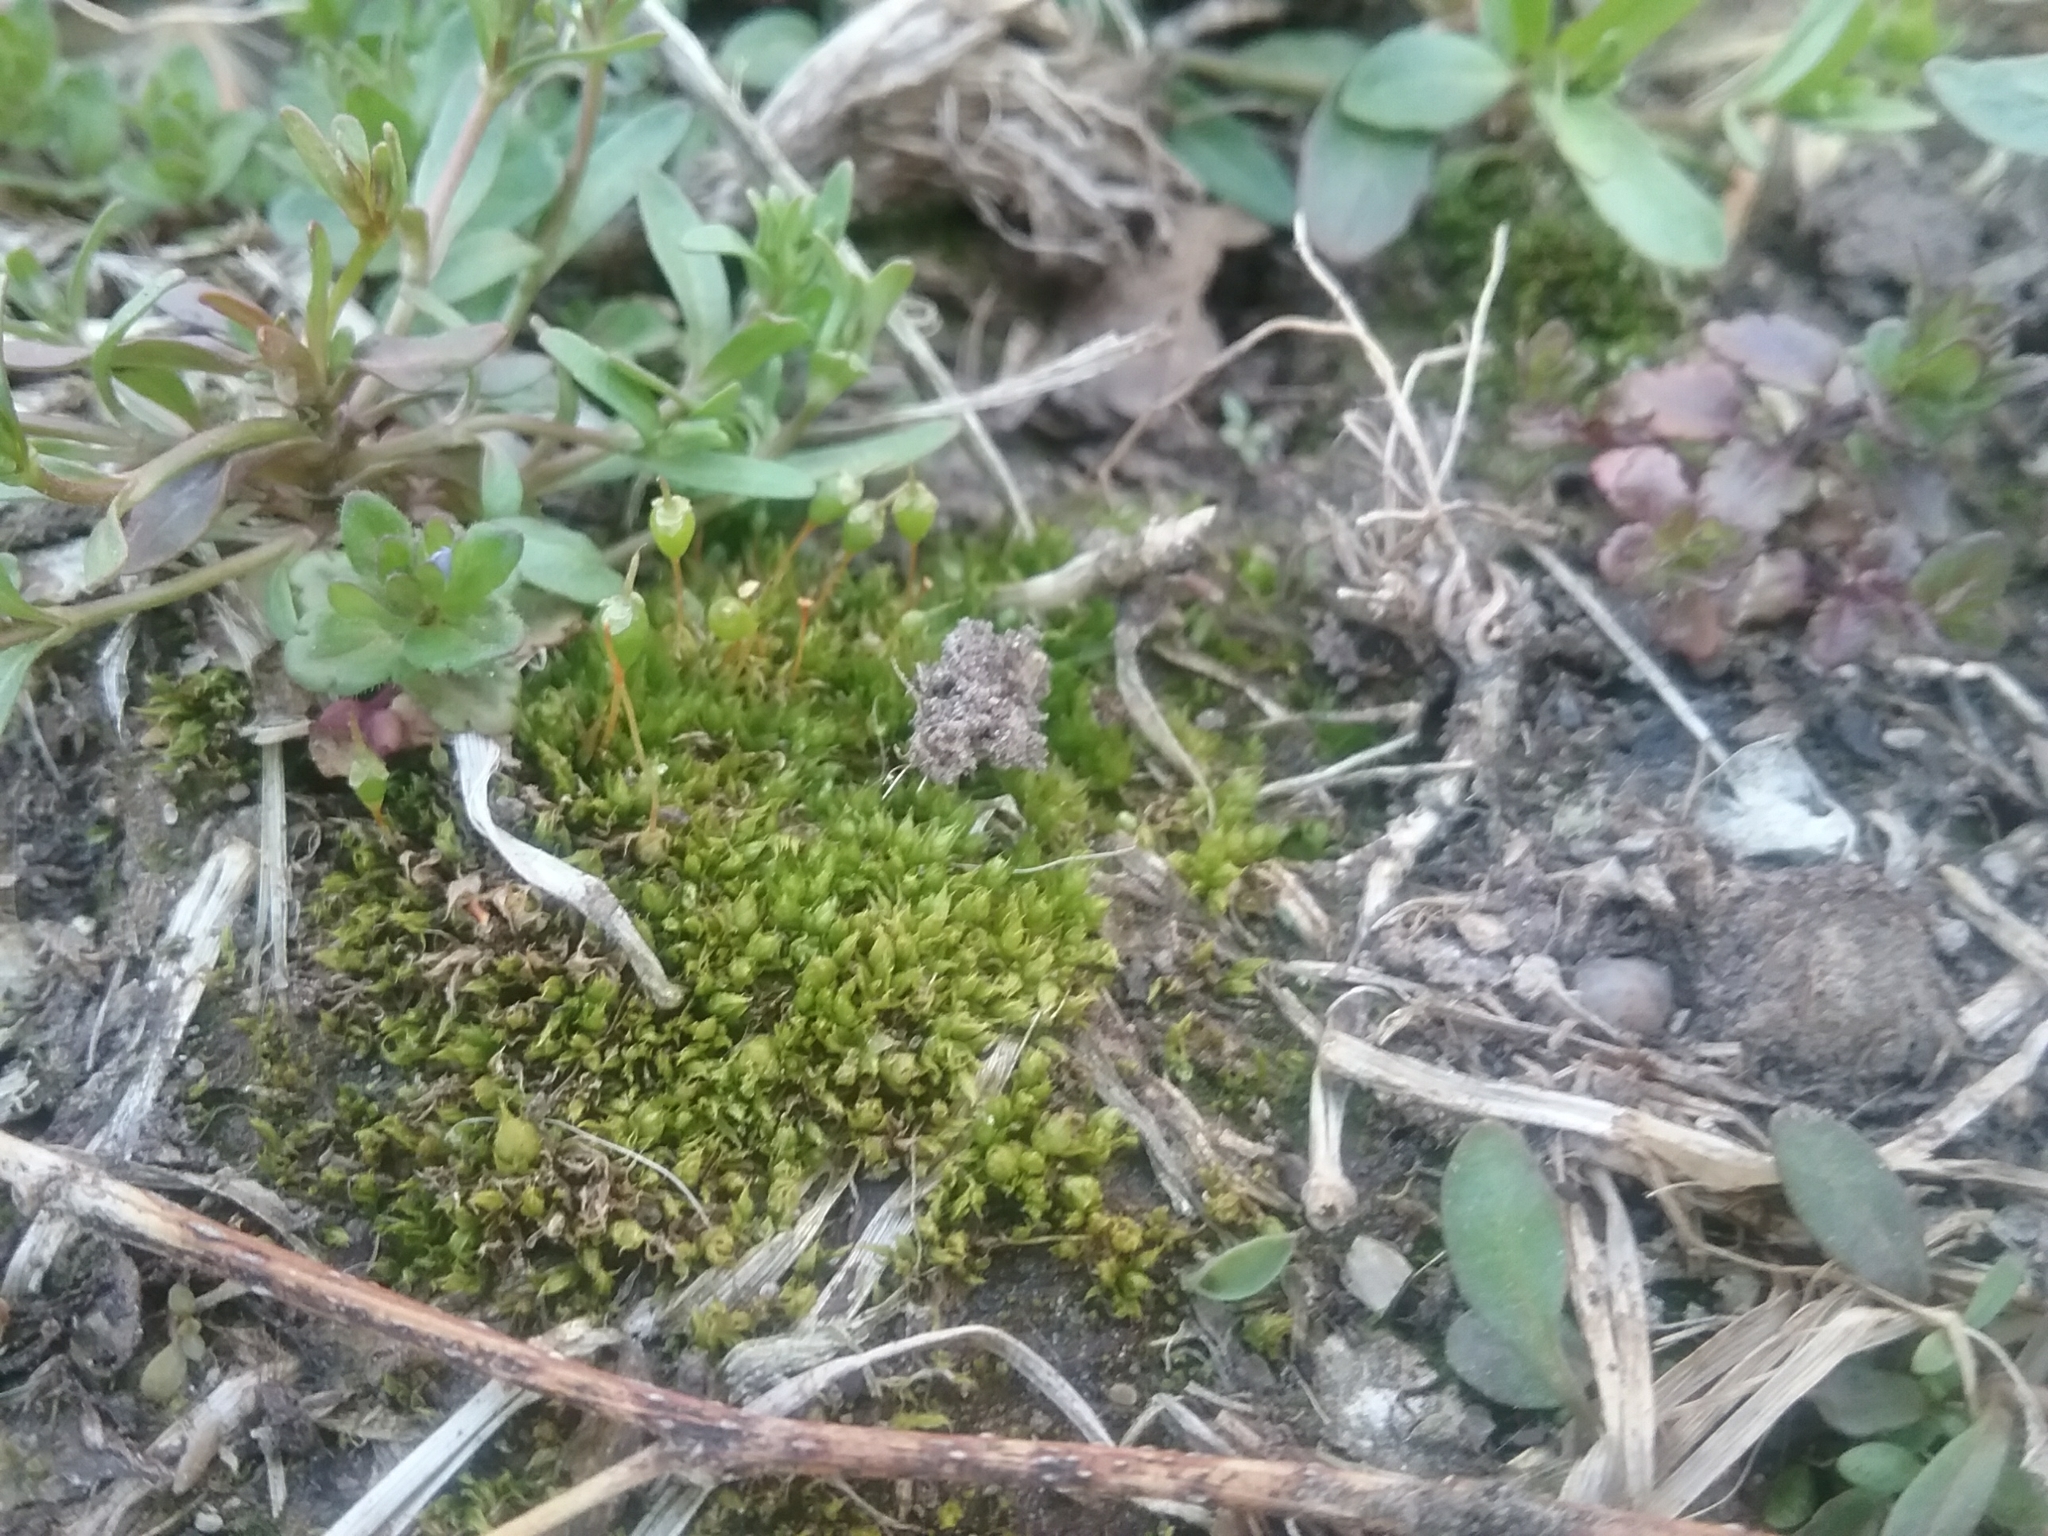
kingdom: Plantae
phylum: Bryophyta
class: Bryopsida
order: Funariales
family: Funariaceae
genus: Physcomitrium
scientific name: Physcomitrium pyriforme
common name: Common bladder-moss
